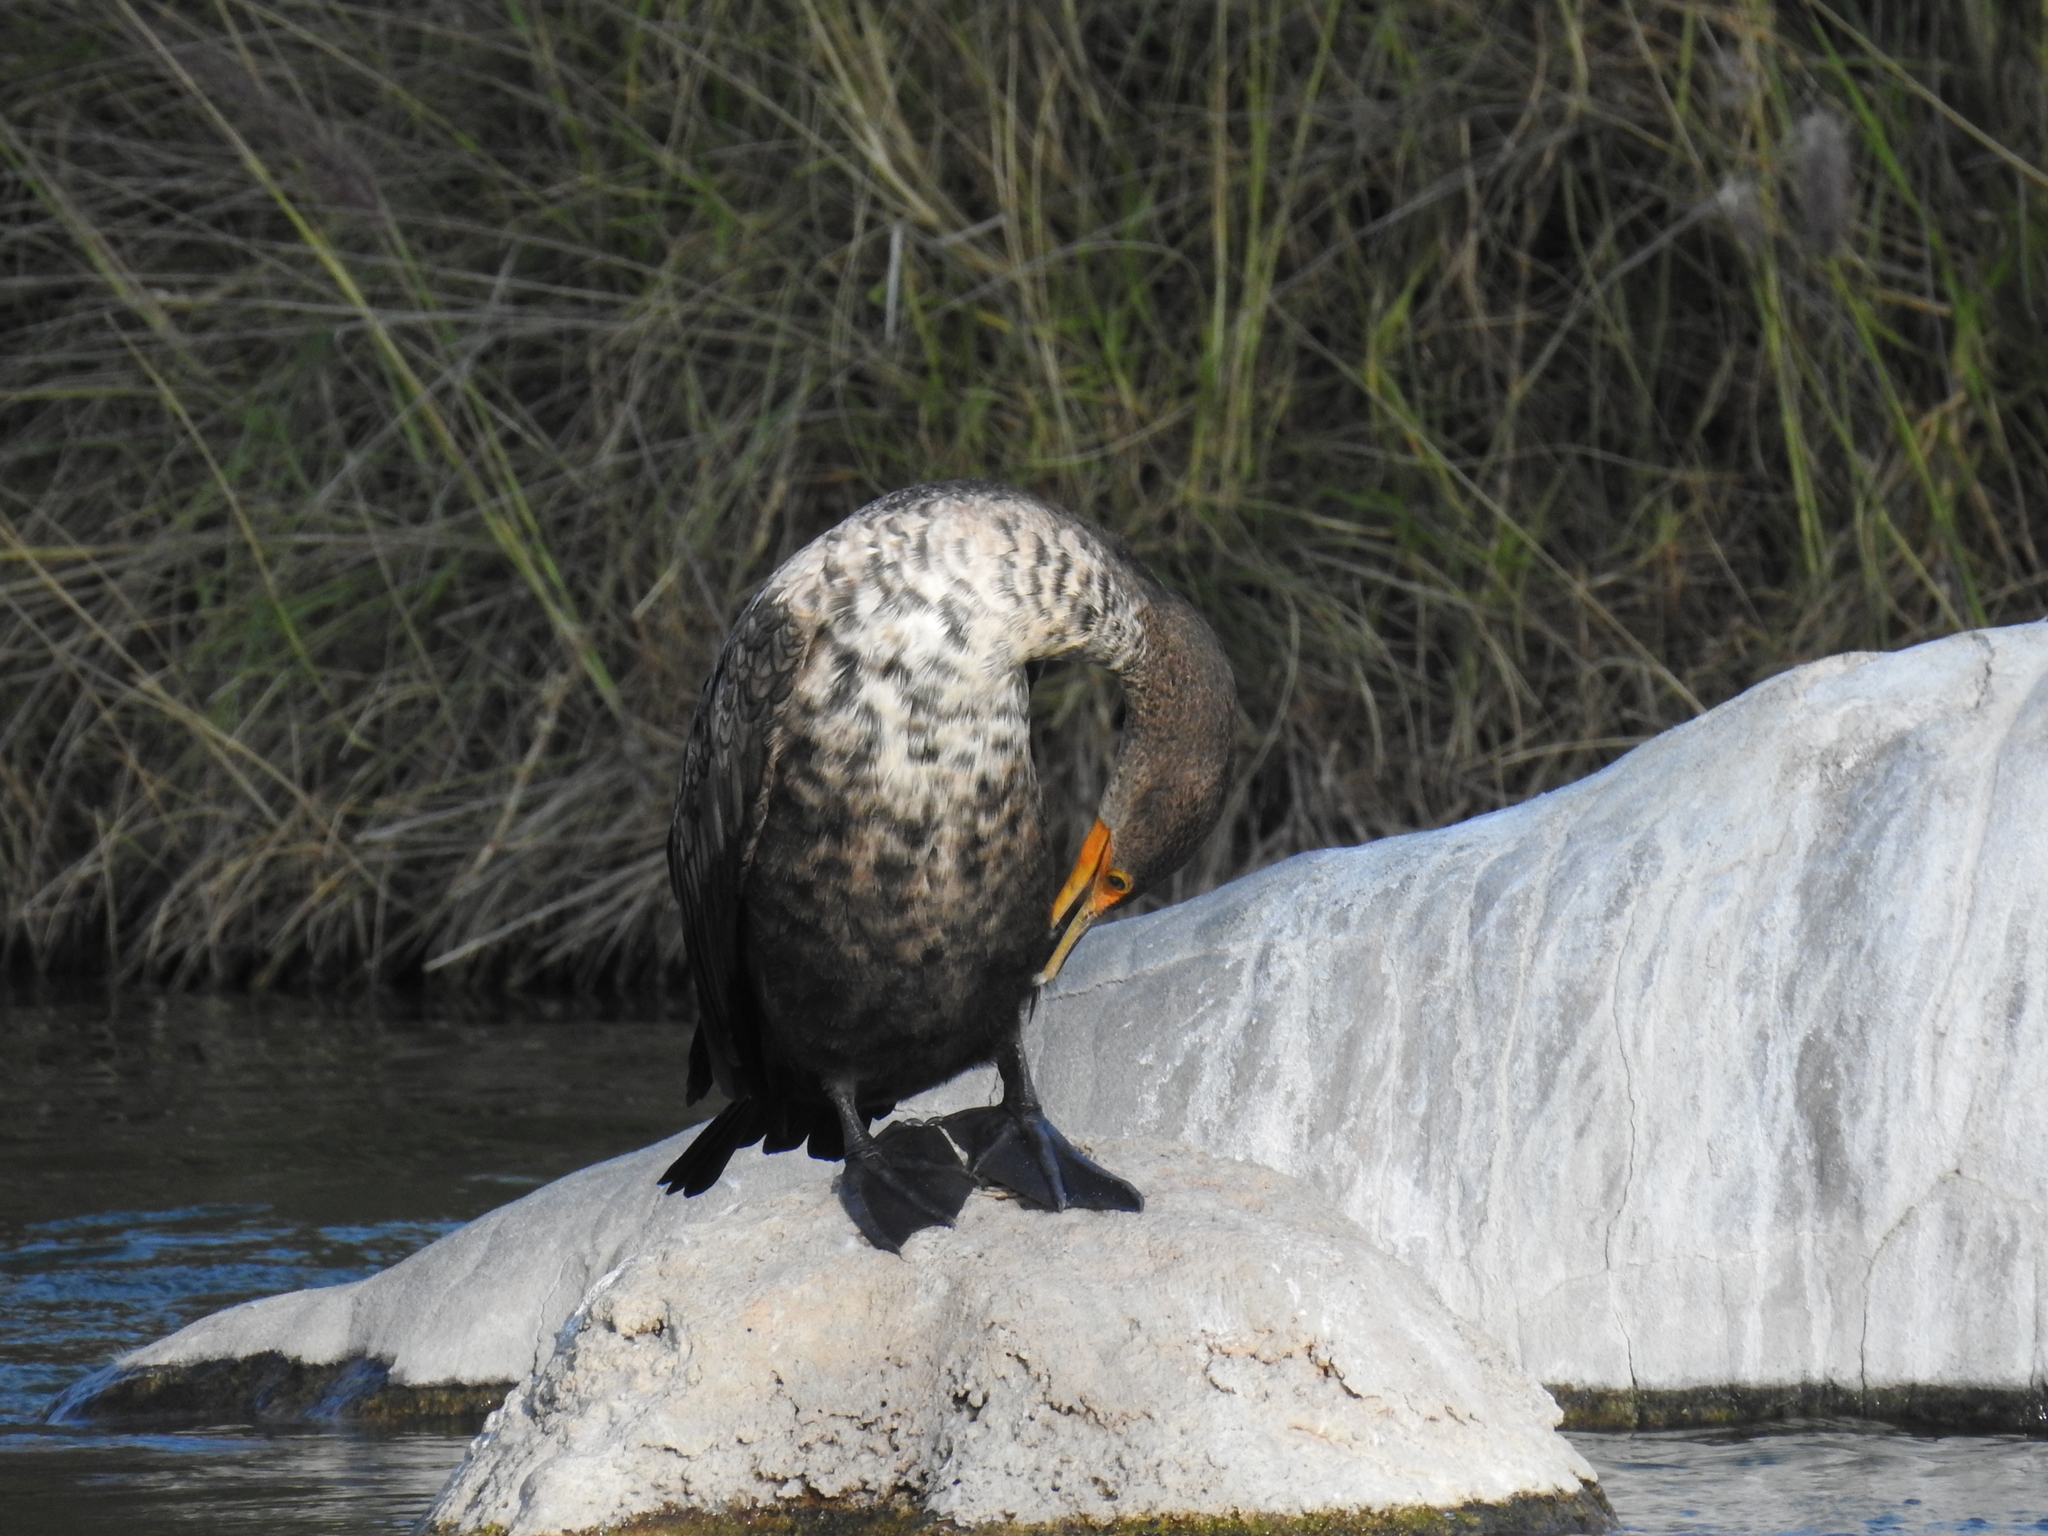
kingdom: Animalia
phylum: Chordata
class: Aves
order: Suliformes
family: Phalacrocoracidae
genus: Phalacrocorax
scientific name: Phalacrocorax auritus
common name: Double-crested cormorant
